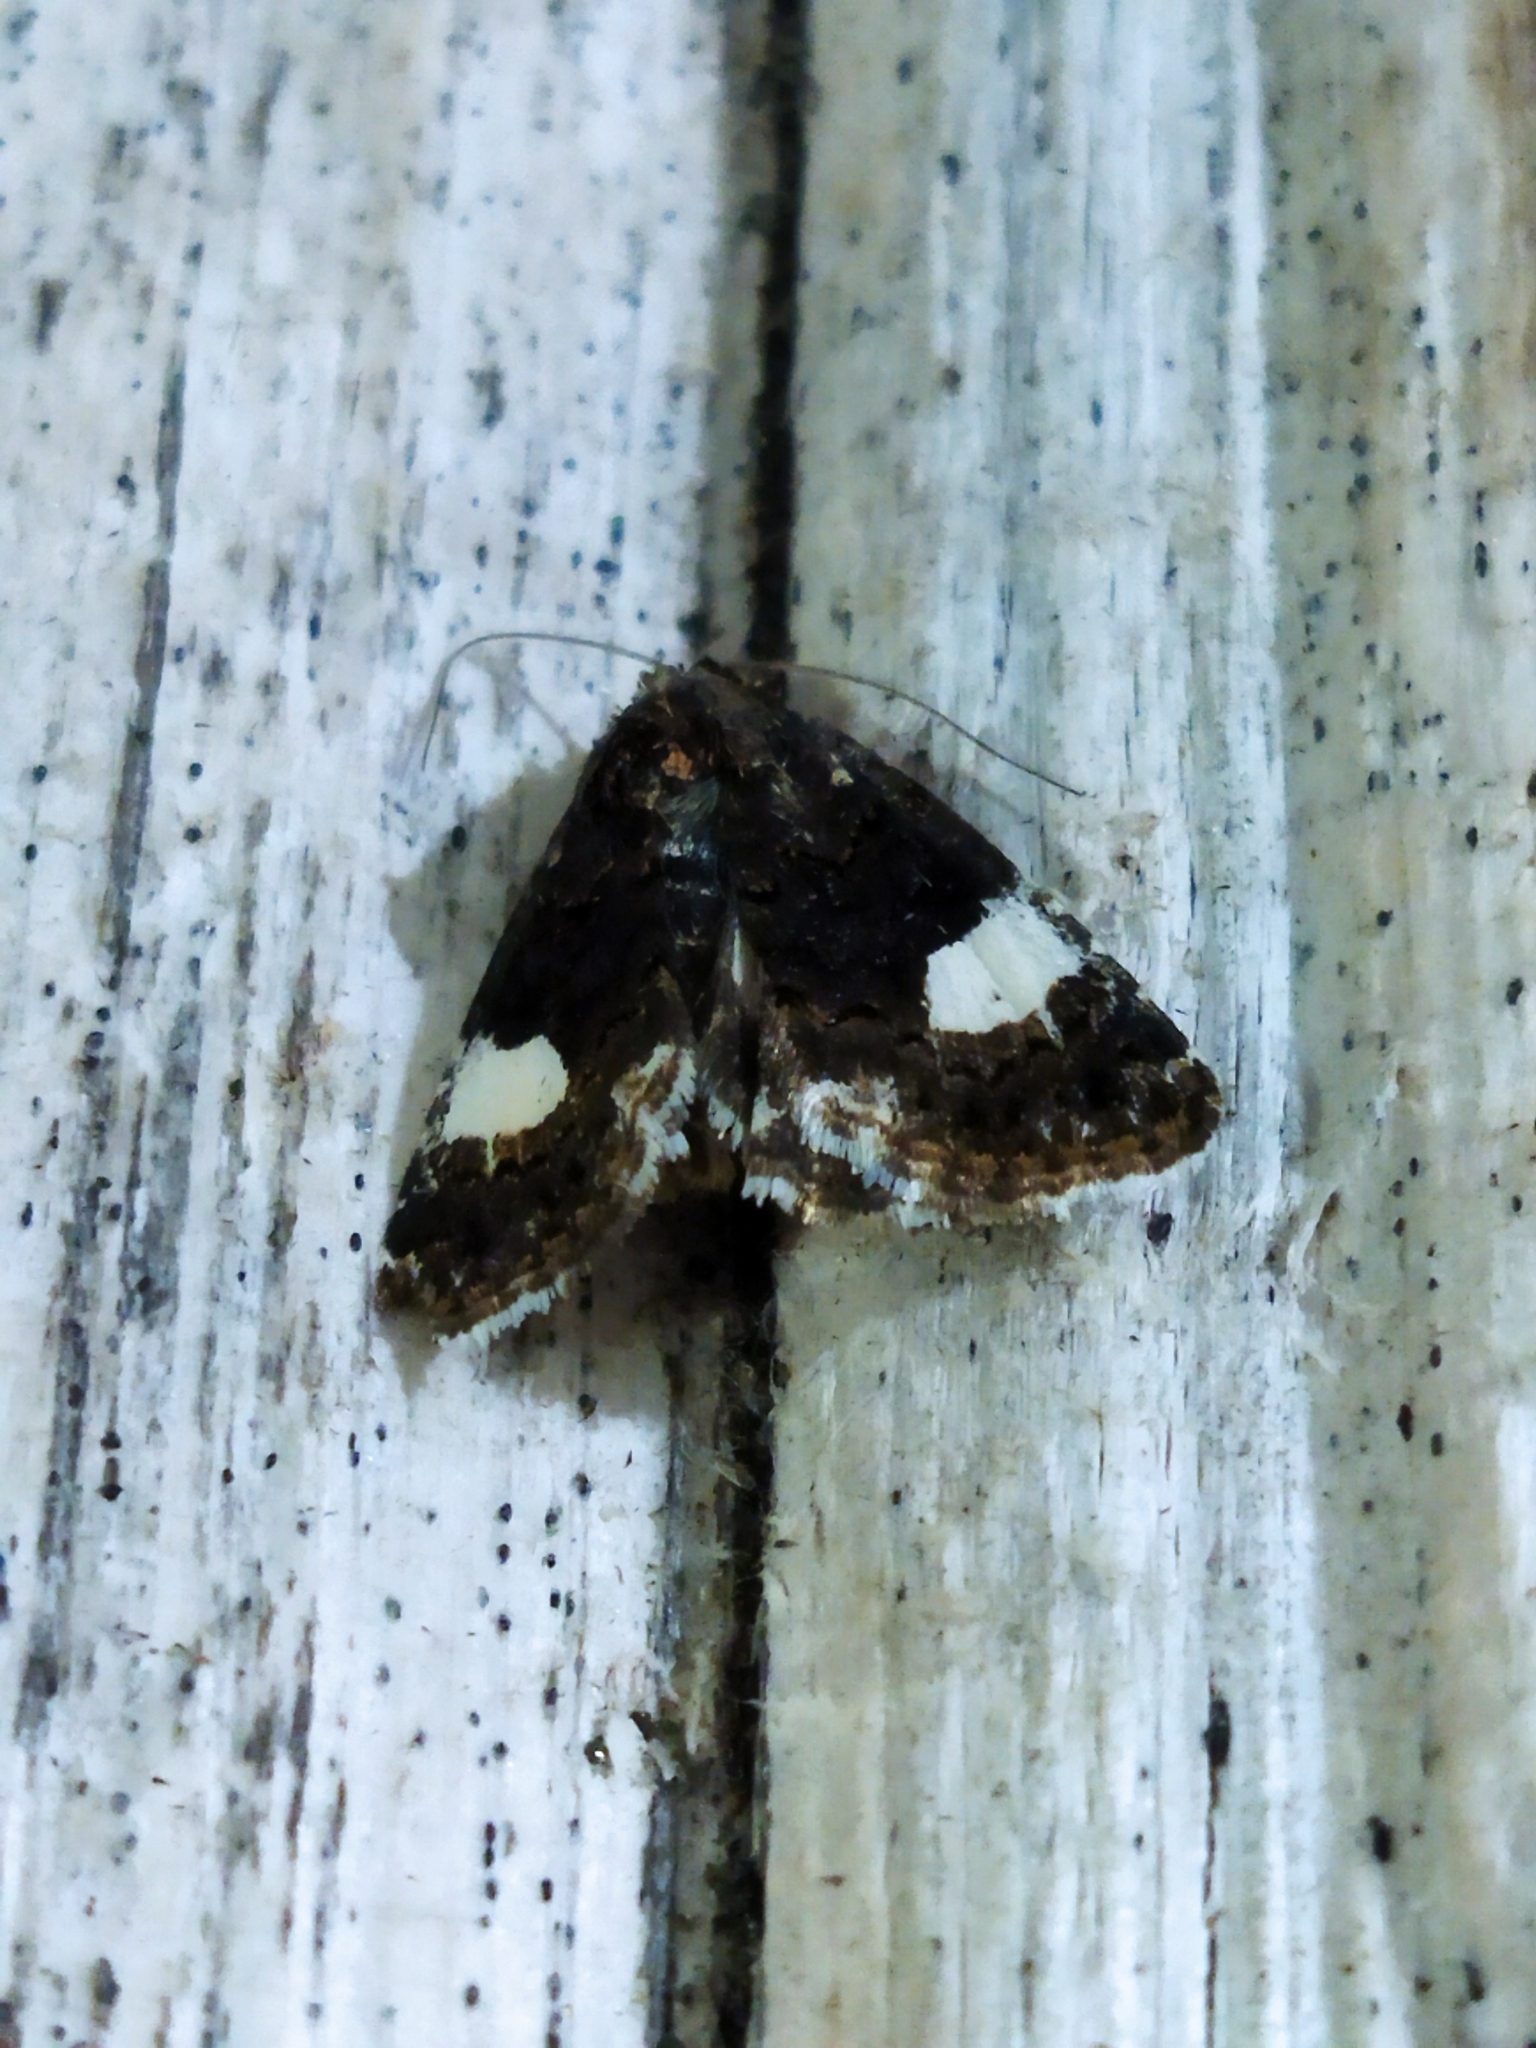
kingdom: Animalia
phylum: Arthropoda
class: Insecta
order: Lepidoptera
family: Erebidae
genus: Tyta
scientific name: Tyta luctuosa
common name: Four-spotted
